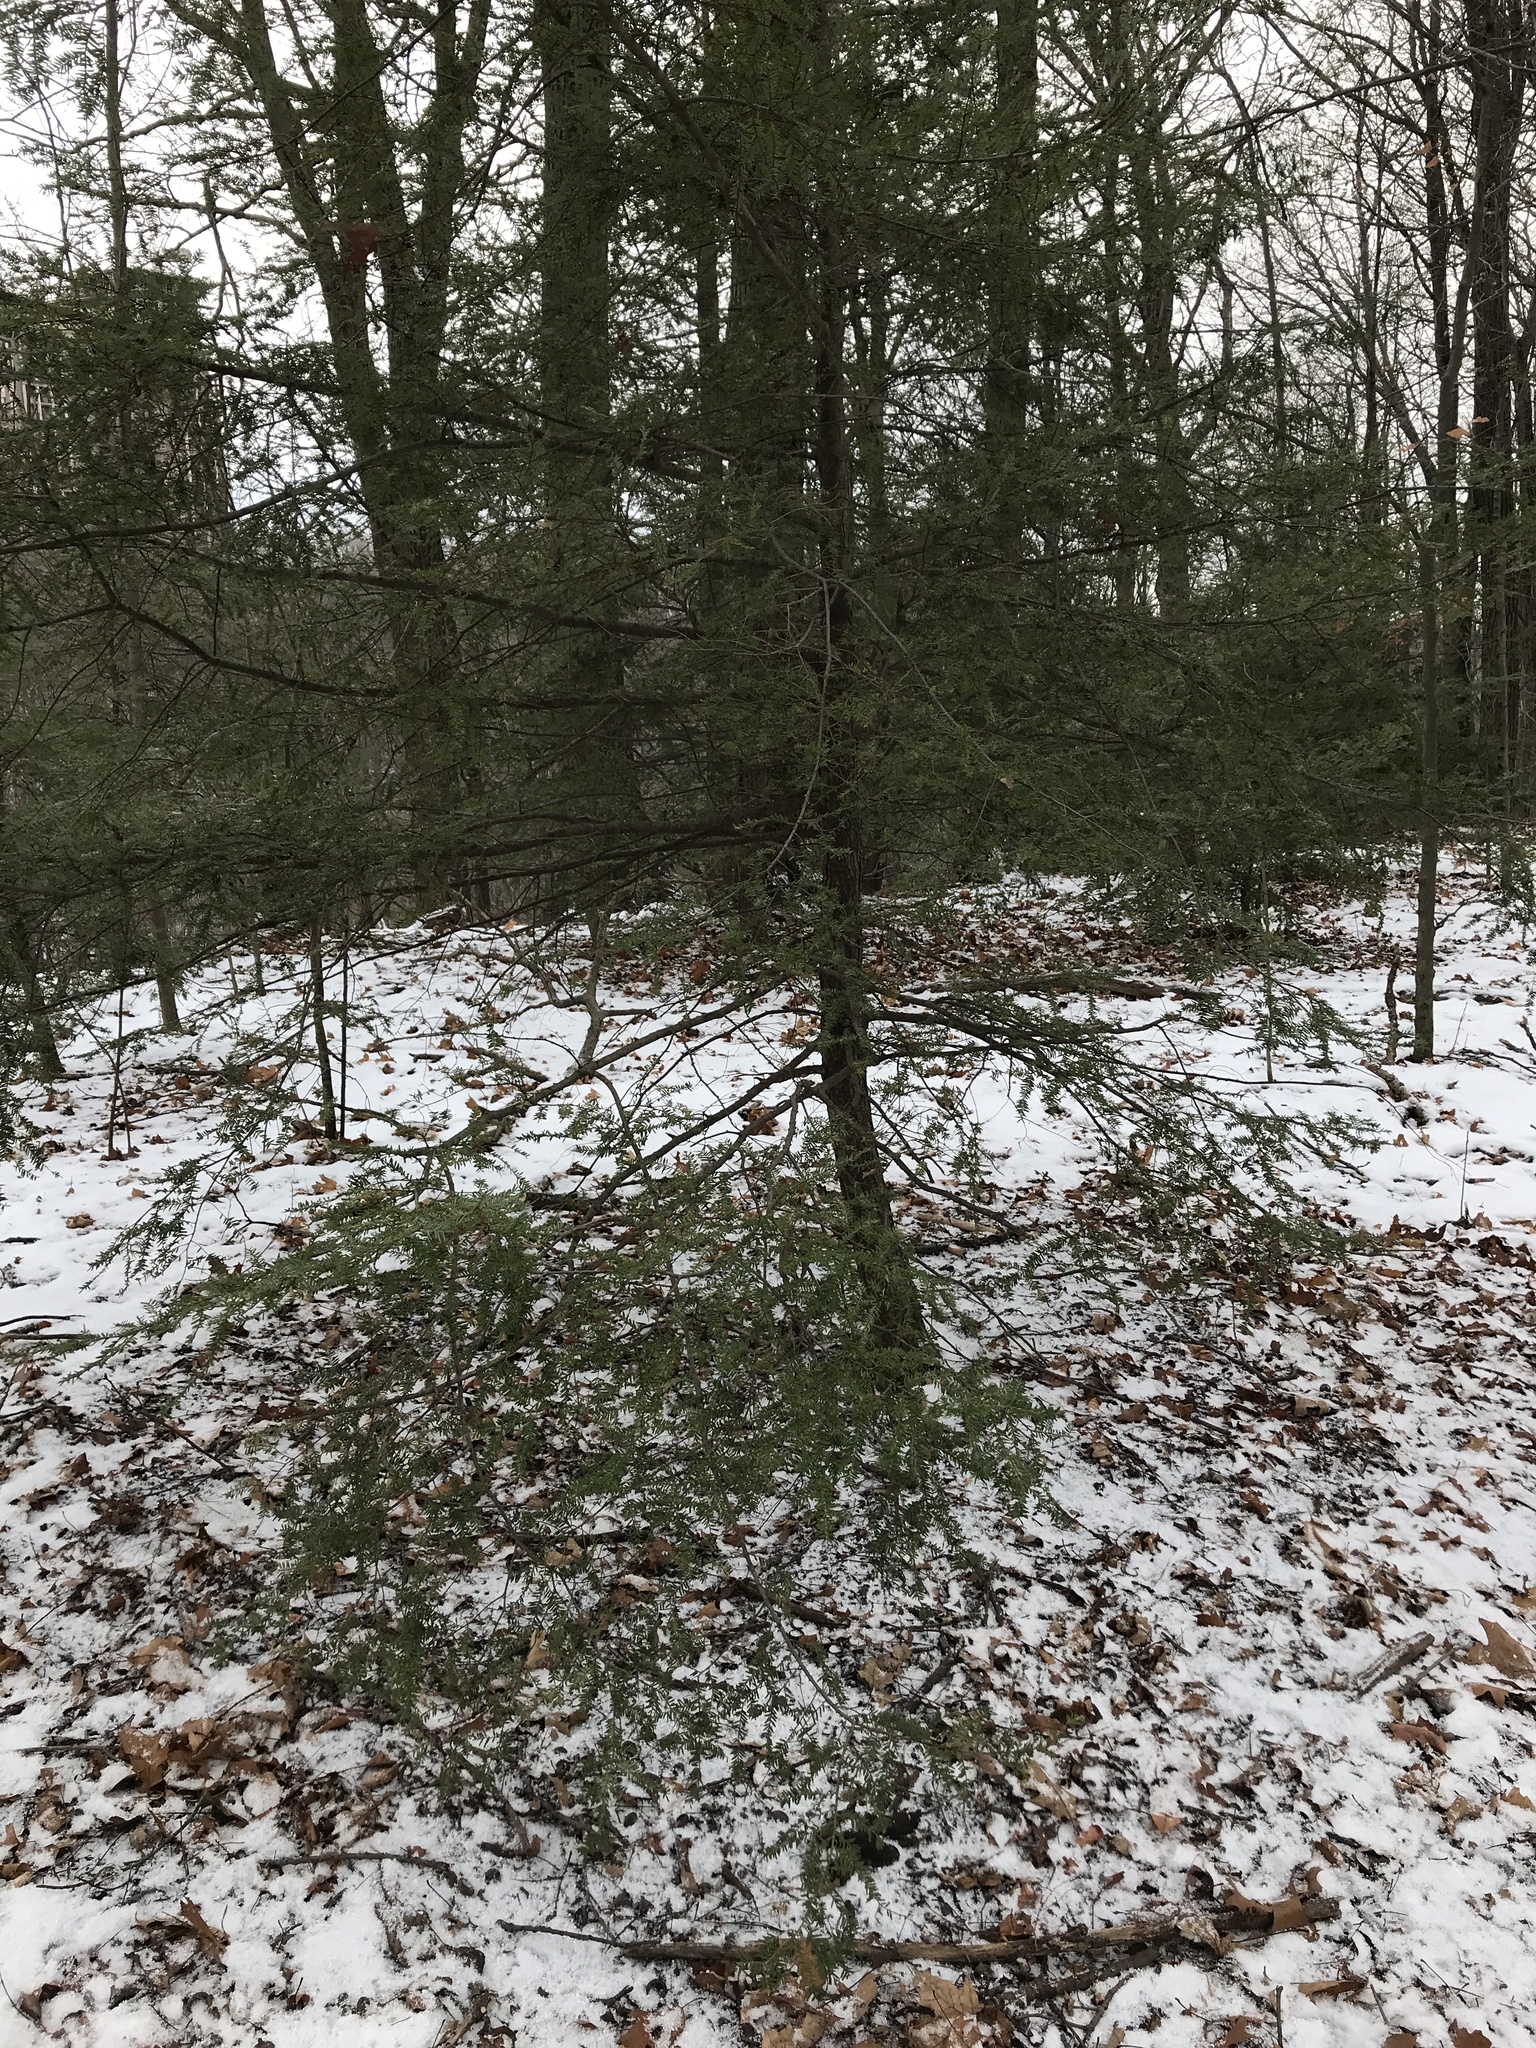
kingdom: Plantae
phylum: Tracheophyta
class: Pinopsida
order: Pinales
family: Pinaceae
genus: Tsuga
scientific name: Tsuga canadensis
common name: Eastern hemlock
